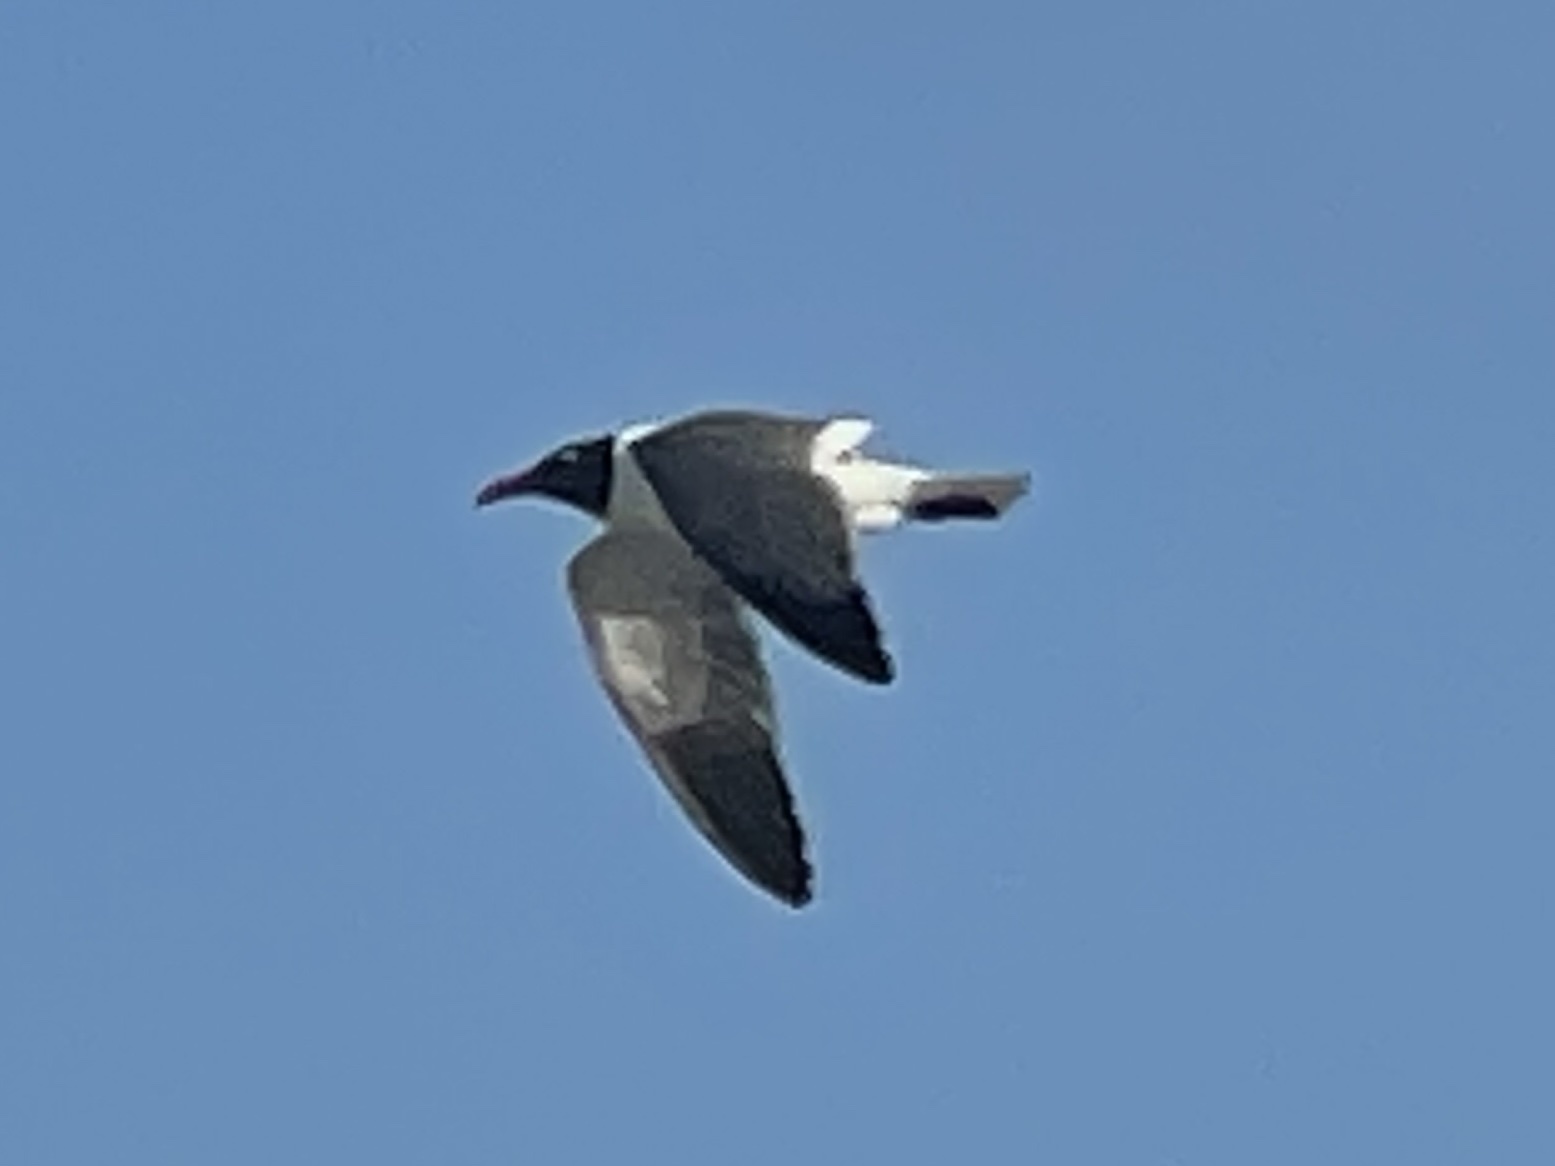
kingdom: Animalia
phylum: Chordata
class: Aves
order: Charadriiformes
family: Laridae
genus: Leucophaeus
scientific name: Leucophaeus atricilla
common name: Laughing gull
